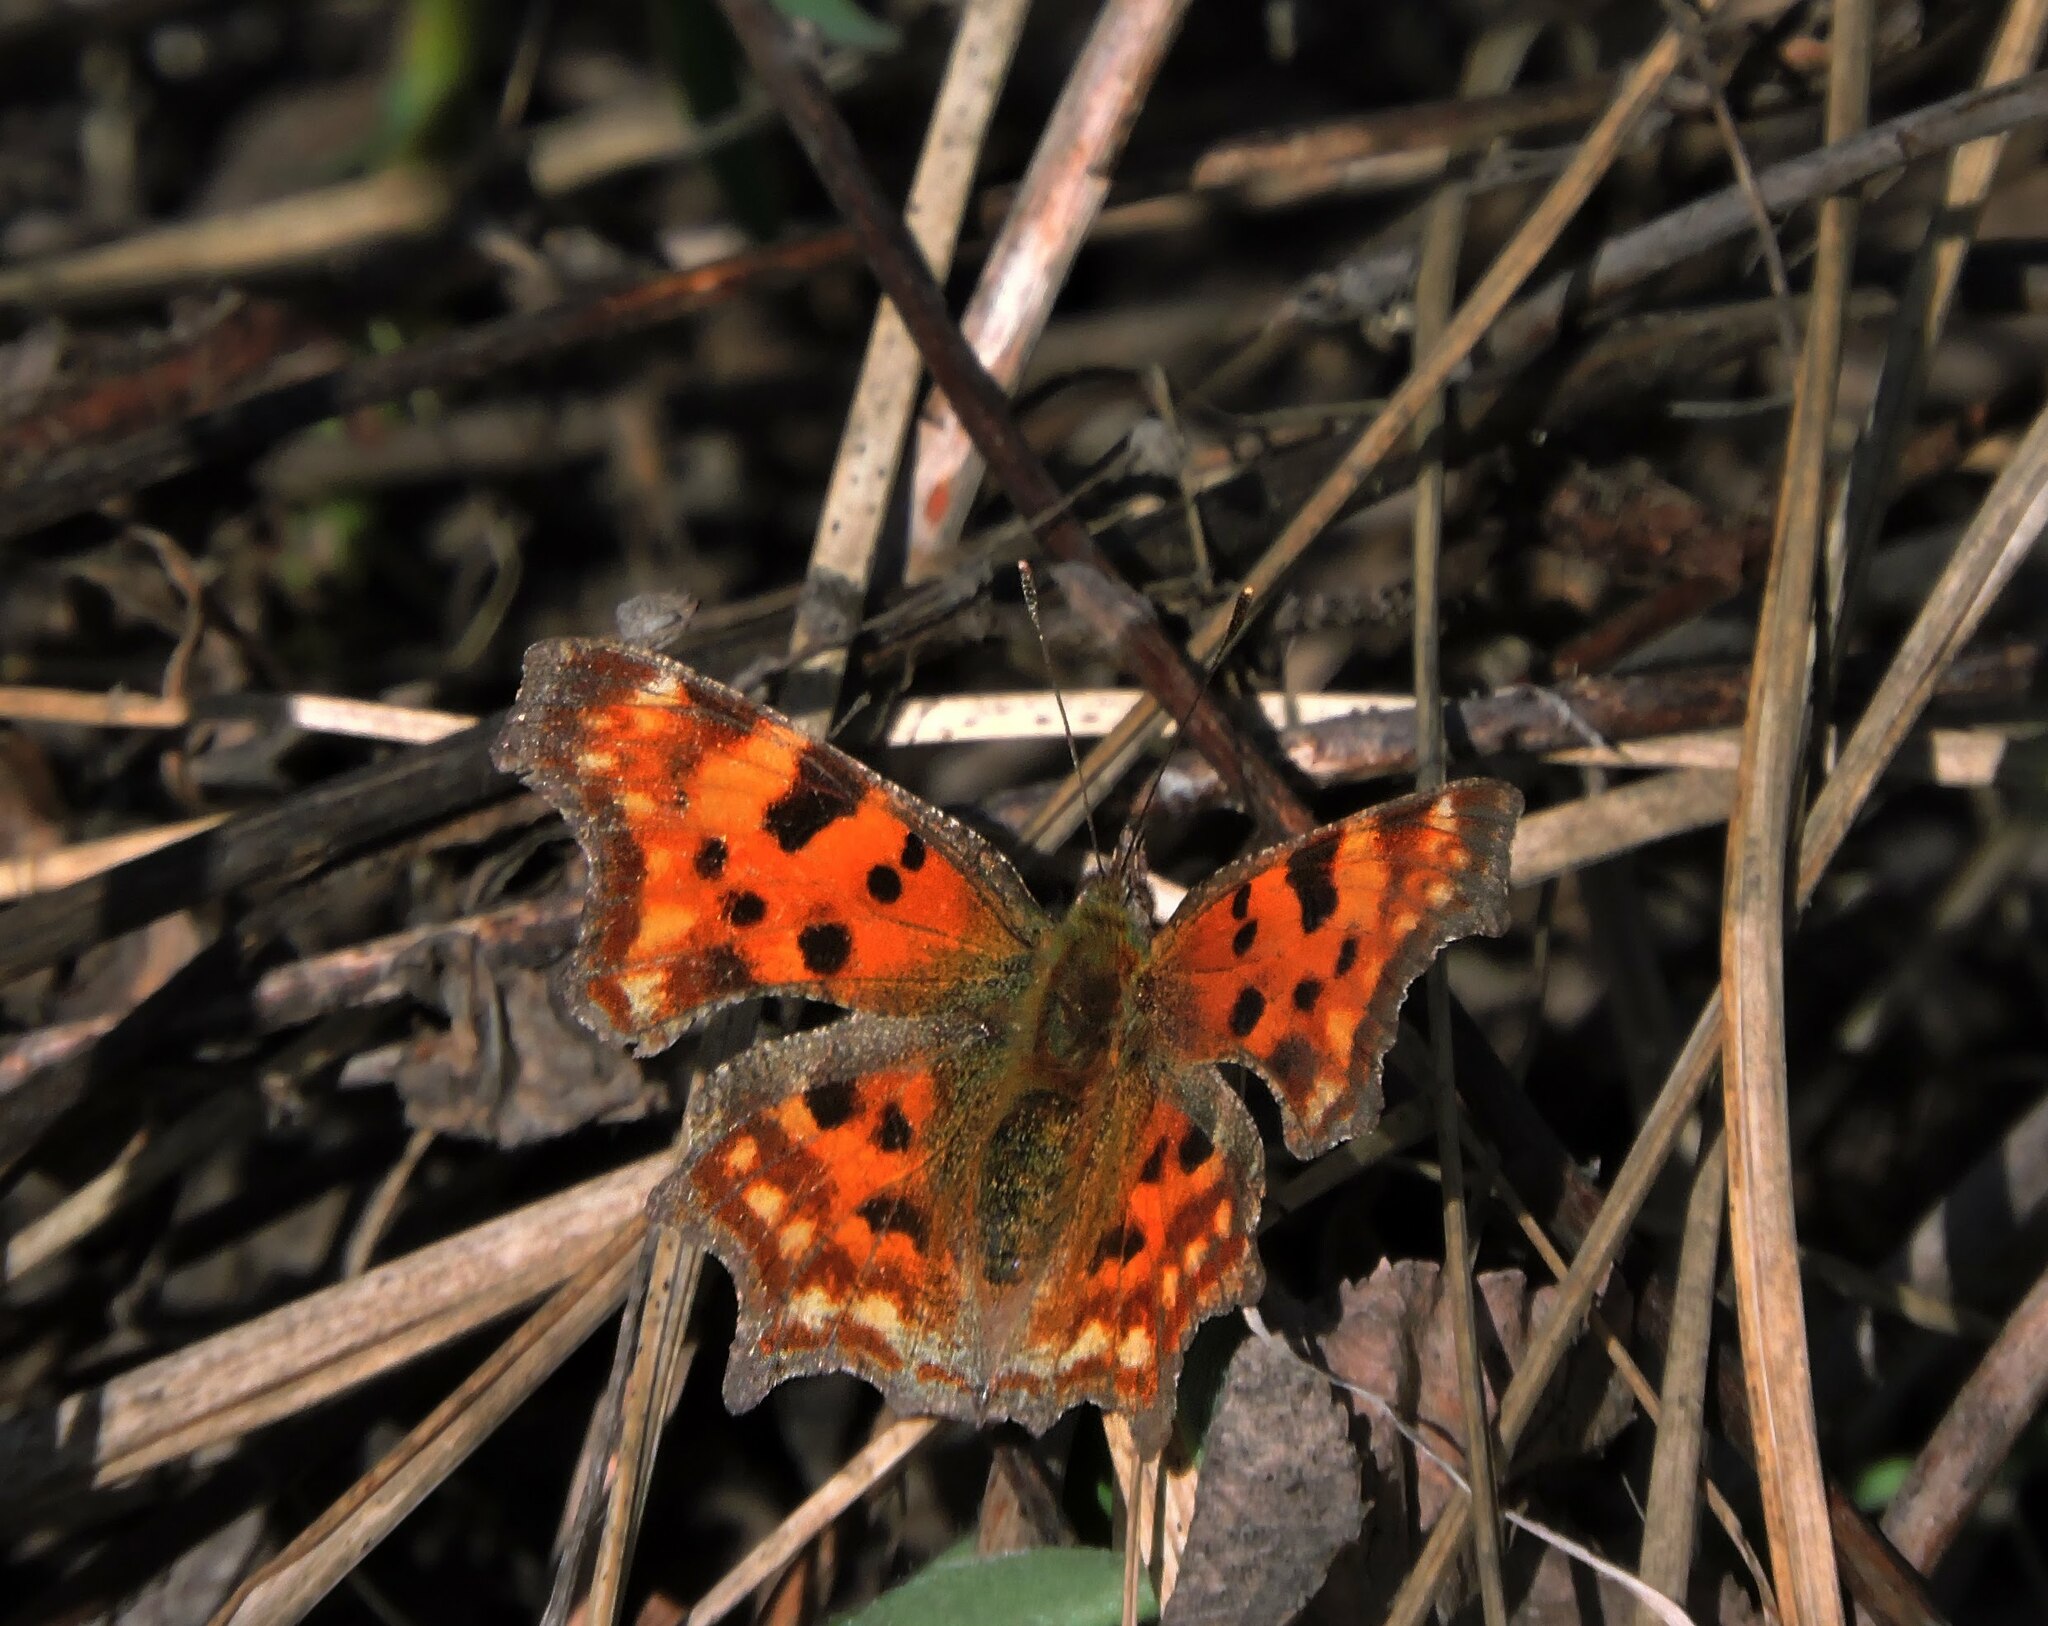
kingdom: Animalia
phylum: Arthropoda
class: Insecta
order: Lepidoptera
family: Nymphalidae
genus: Polygonia
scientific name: Polygonia c-album
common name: Comma
